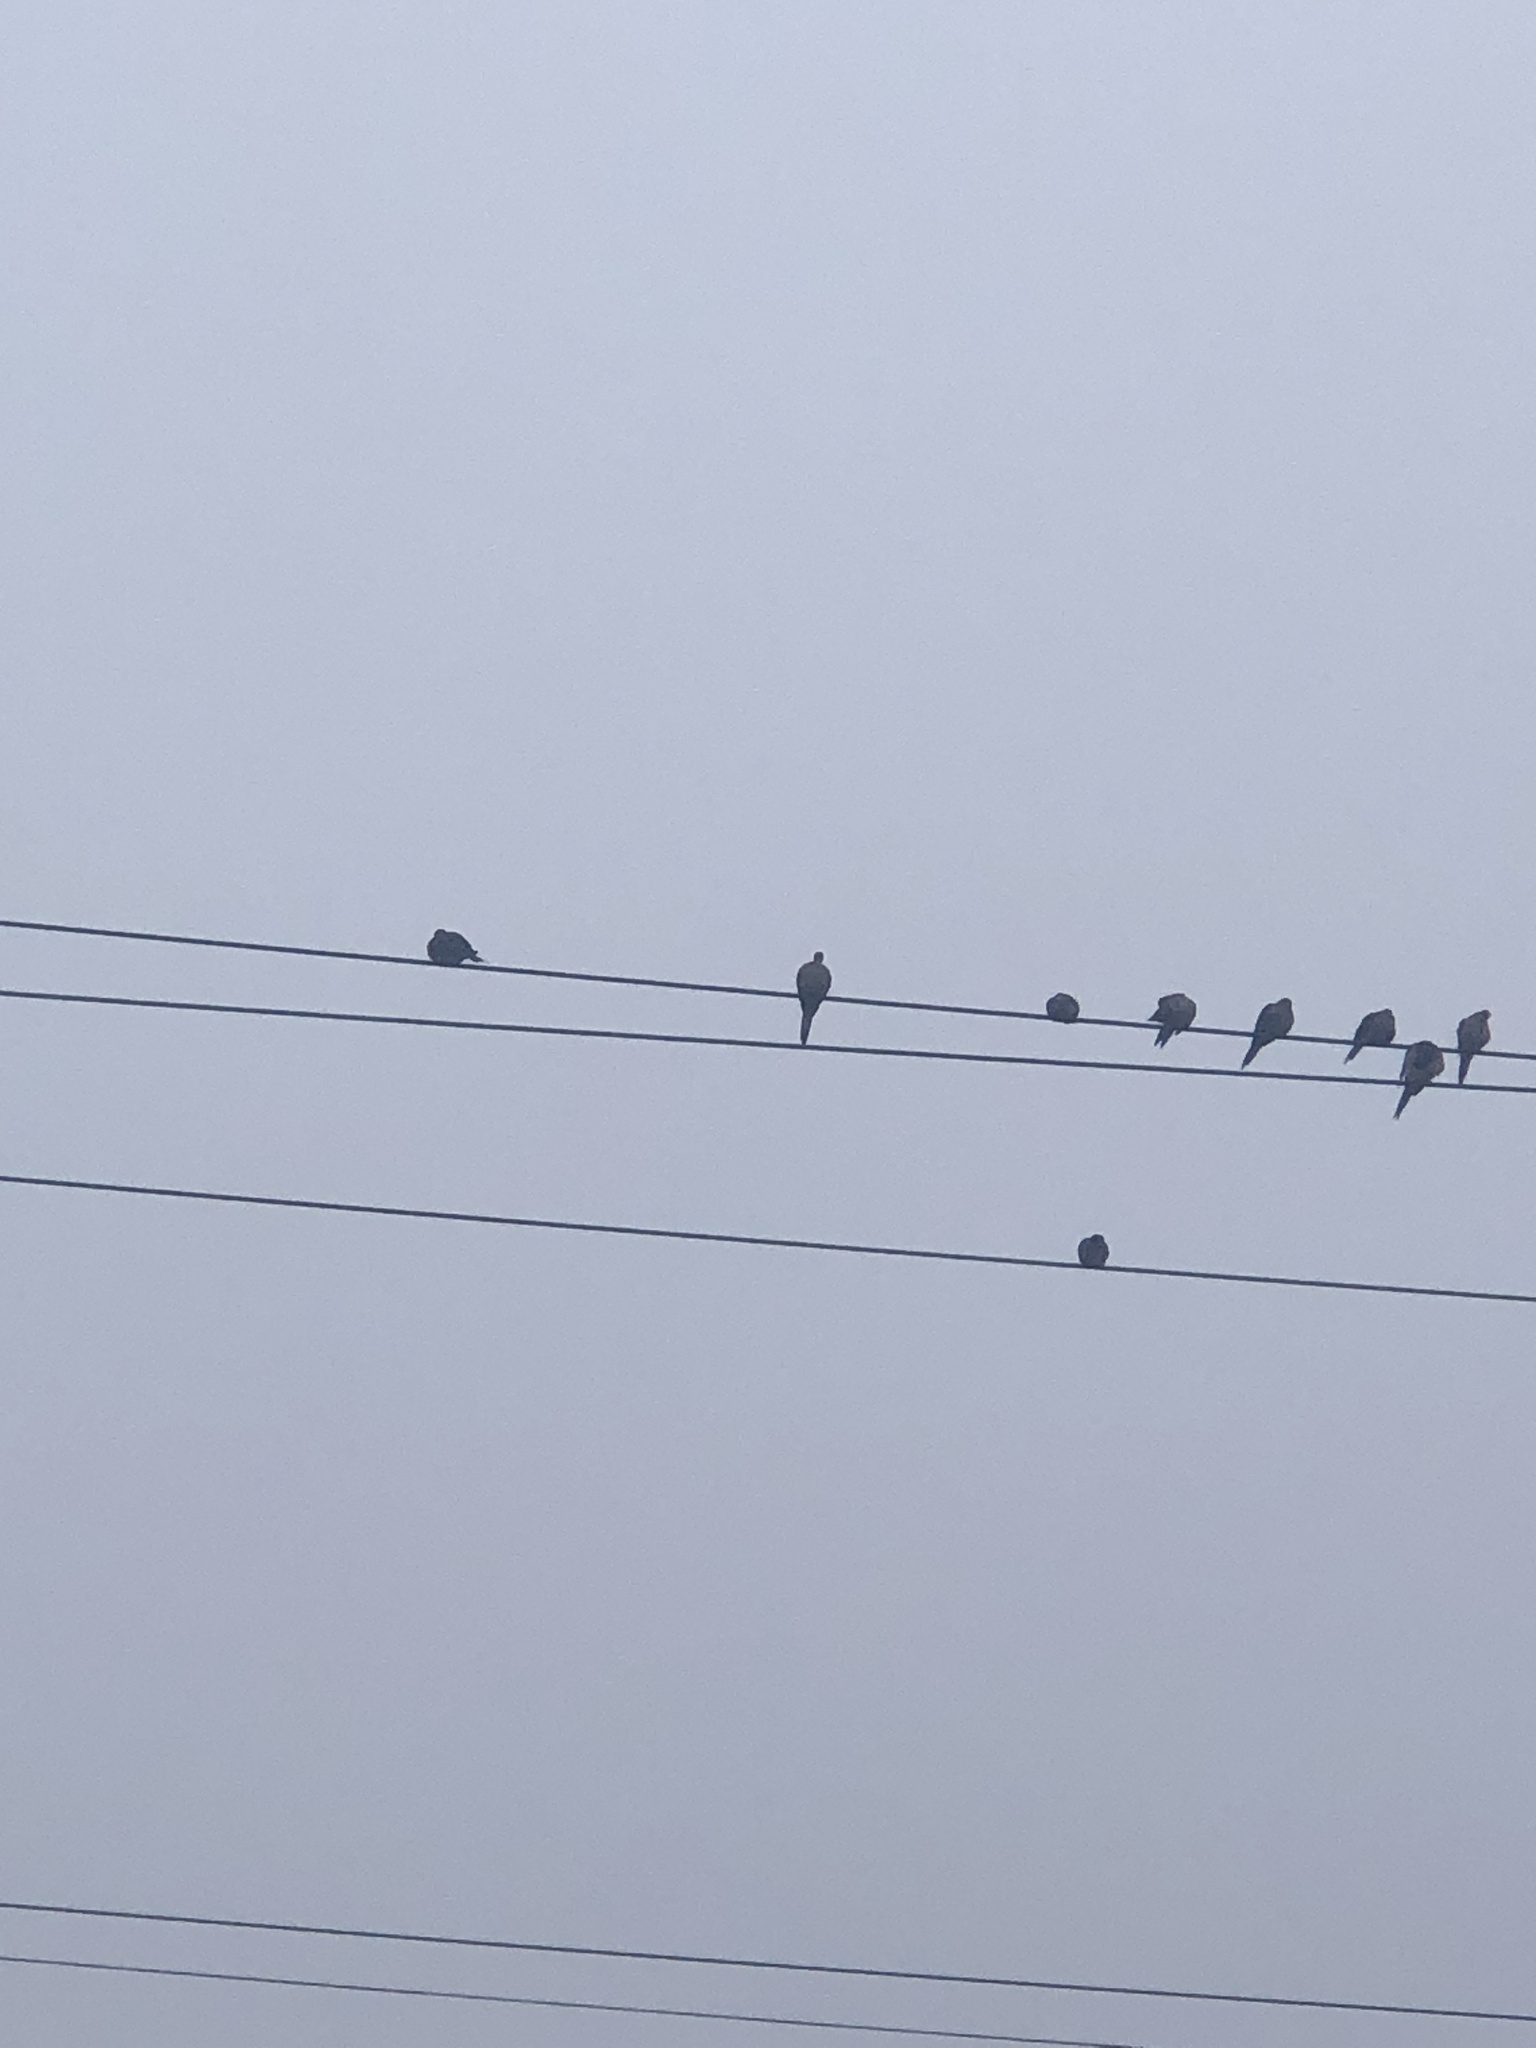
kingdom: Animalia
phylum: Chordata
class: Aves
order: Columbiformes
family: Columbidae
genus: Zenaida
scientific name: Zenaida macroura
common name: Mourning dove
